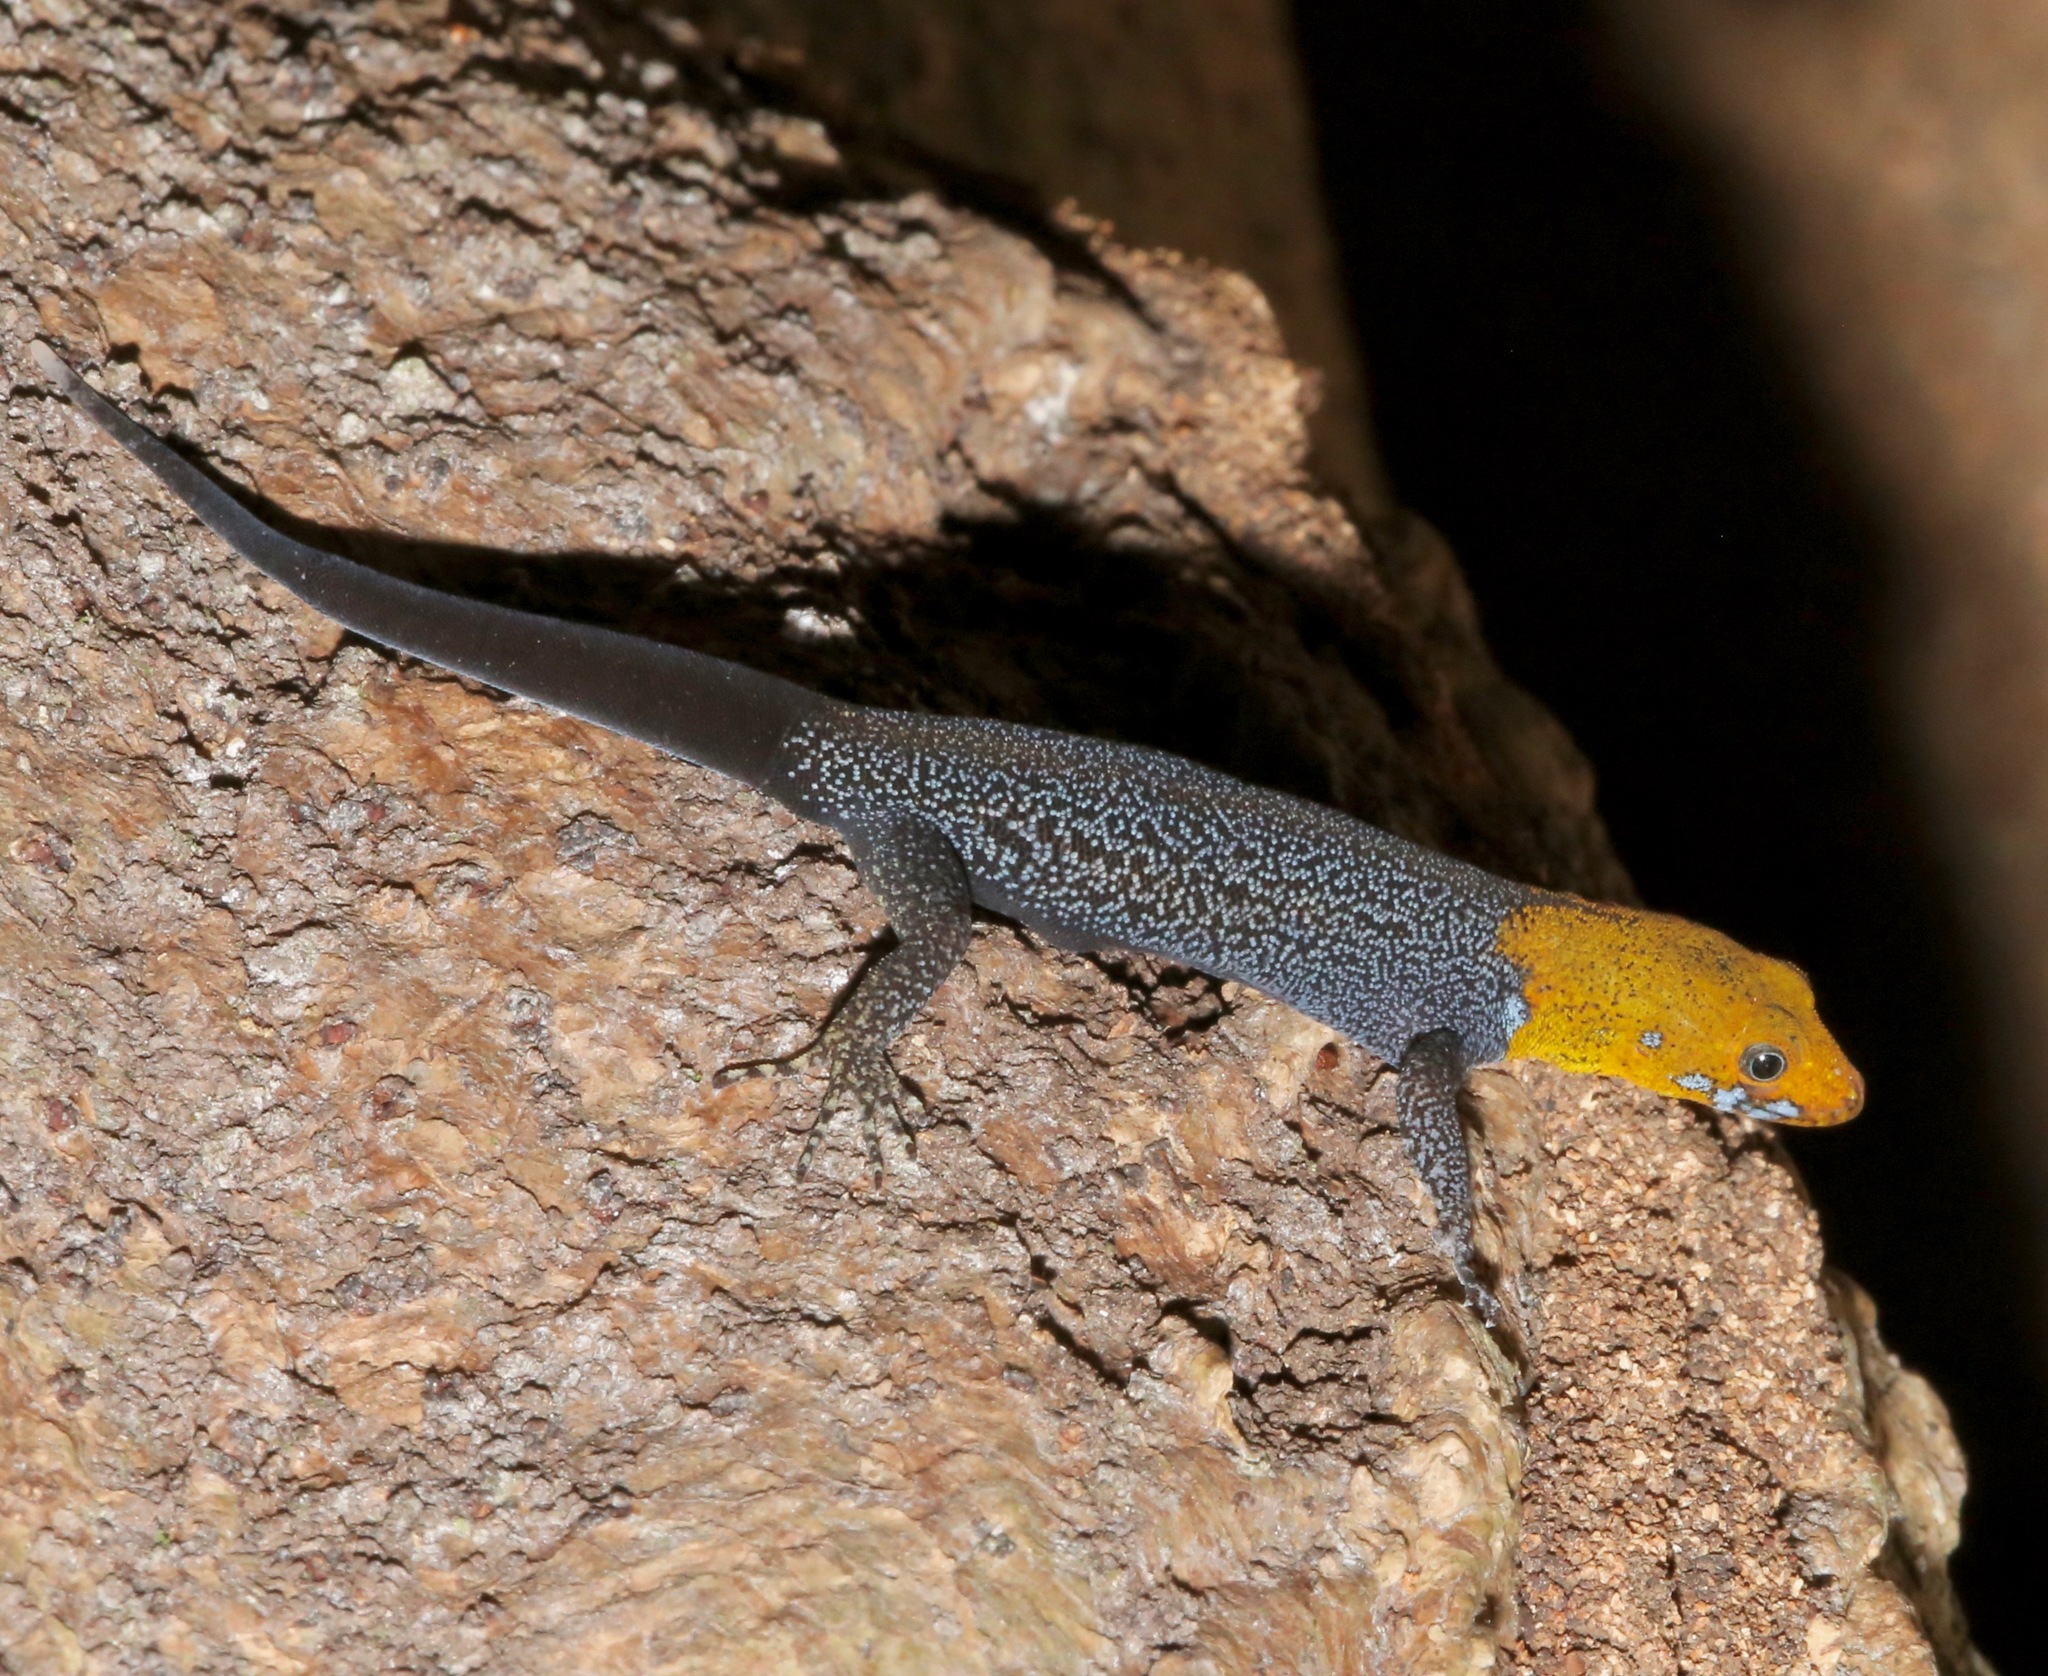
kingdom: Animalia
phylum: Chordata
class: Squamata
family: Sphaerodactylidae
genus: Gonatodes
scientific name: Gonatodes albogularis
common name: Yellow-headed gecko
